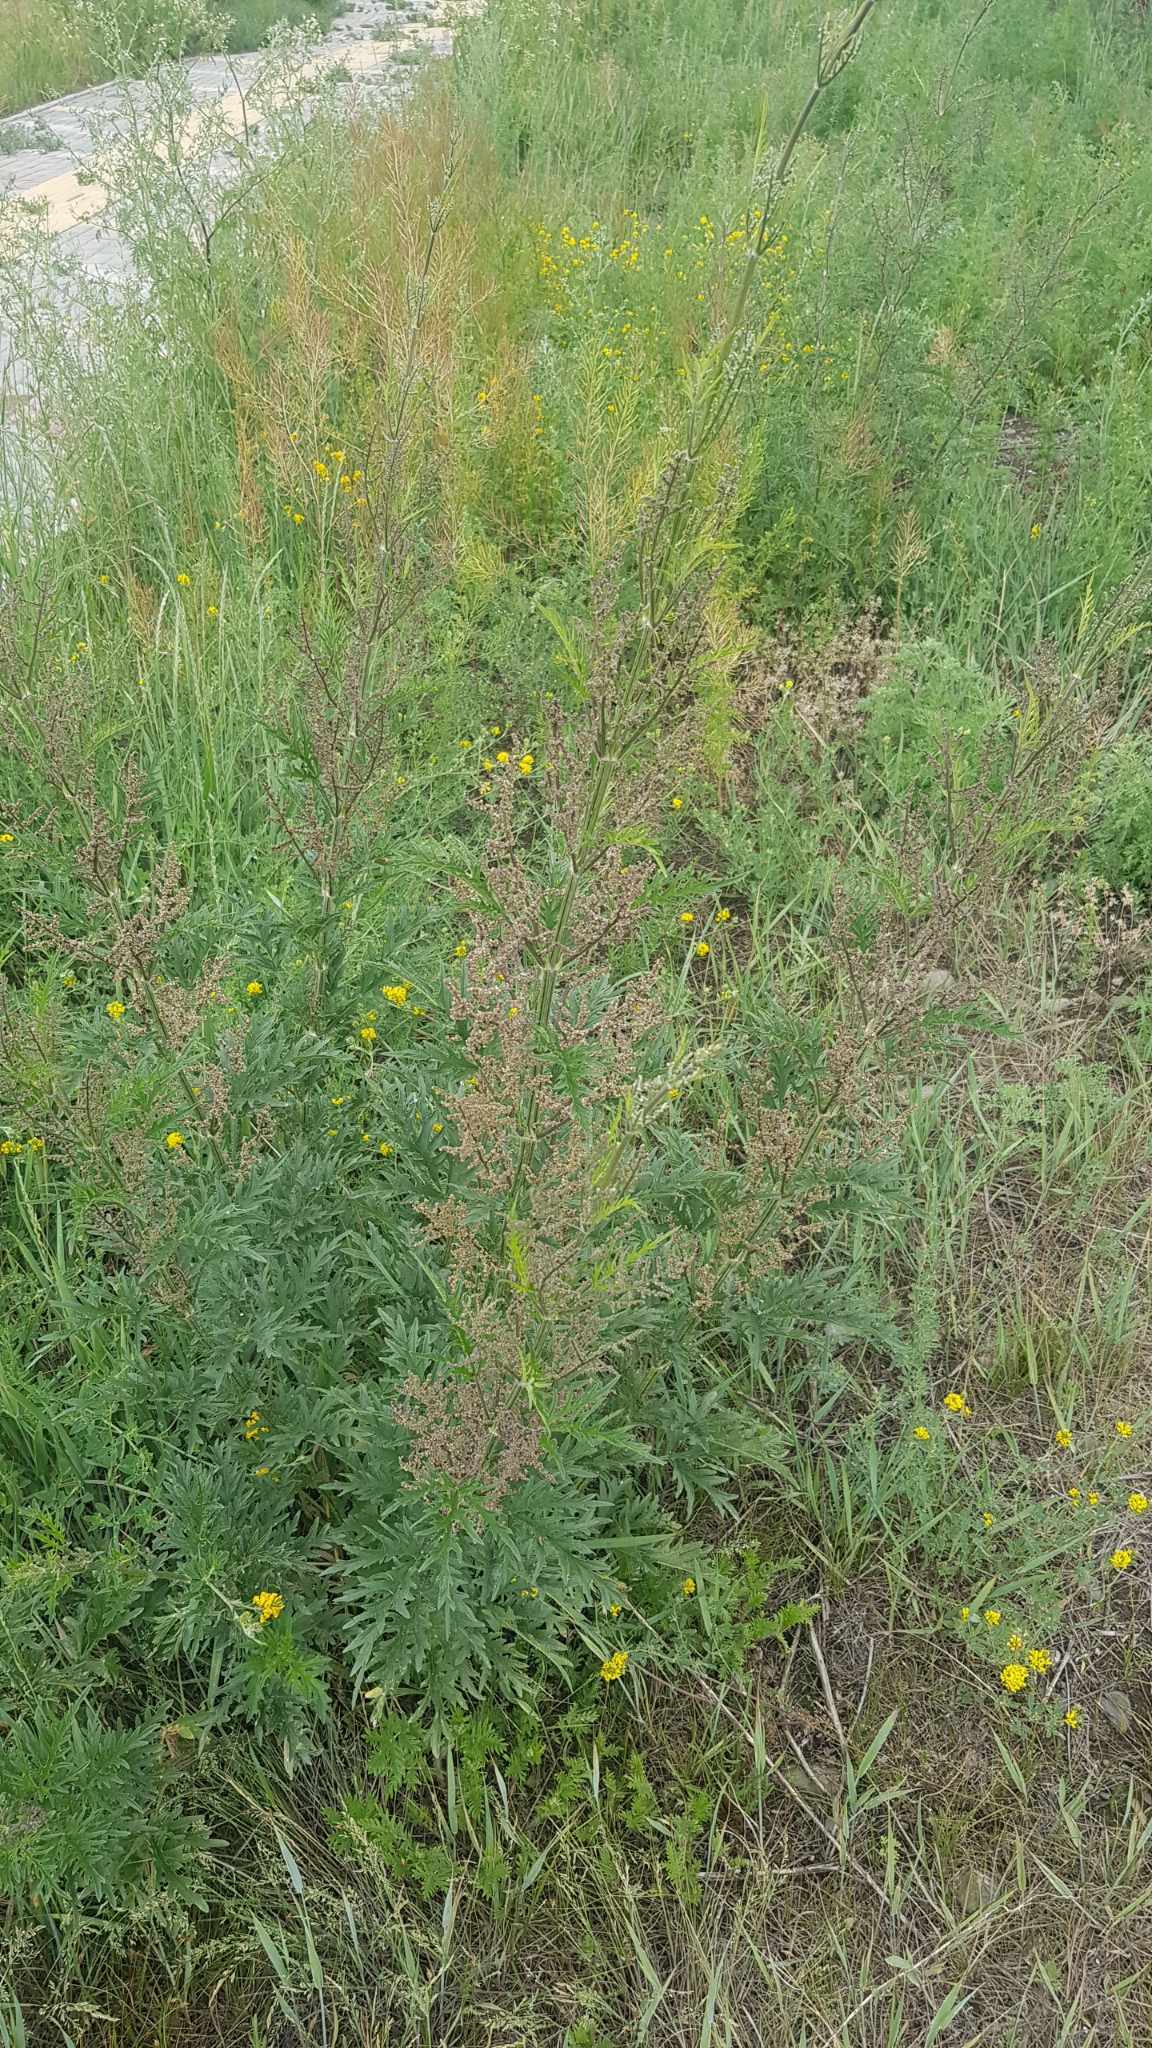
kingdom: Plantae
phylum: Tracheophyta
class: Magnoliopsida
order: Rosales
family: Urticaceae
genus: Urtica
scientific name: Urtica cannabina
